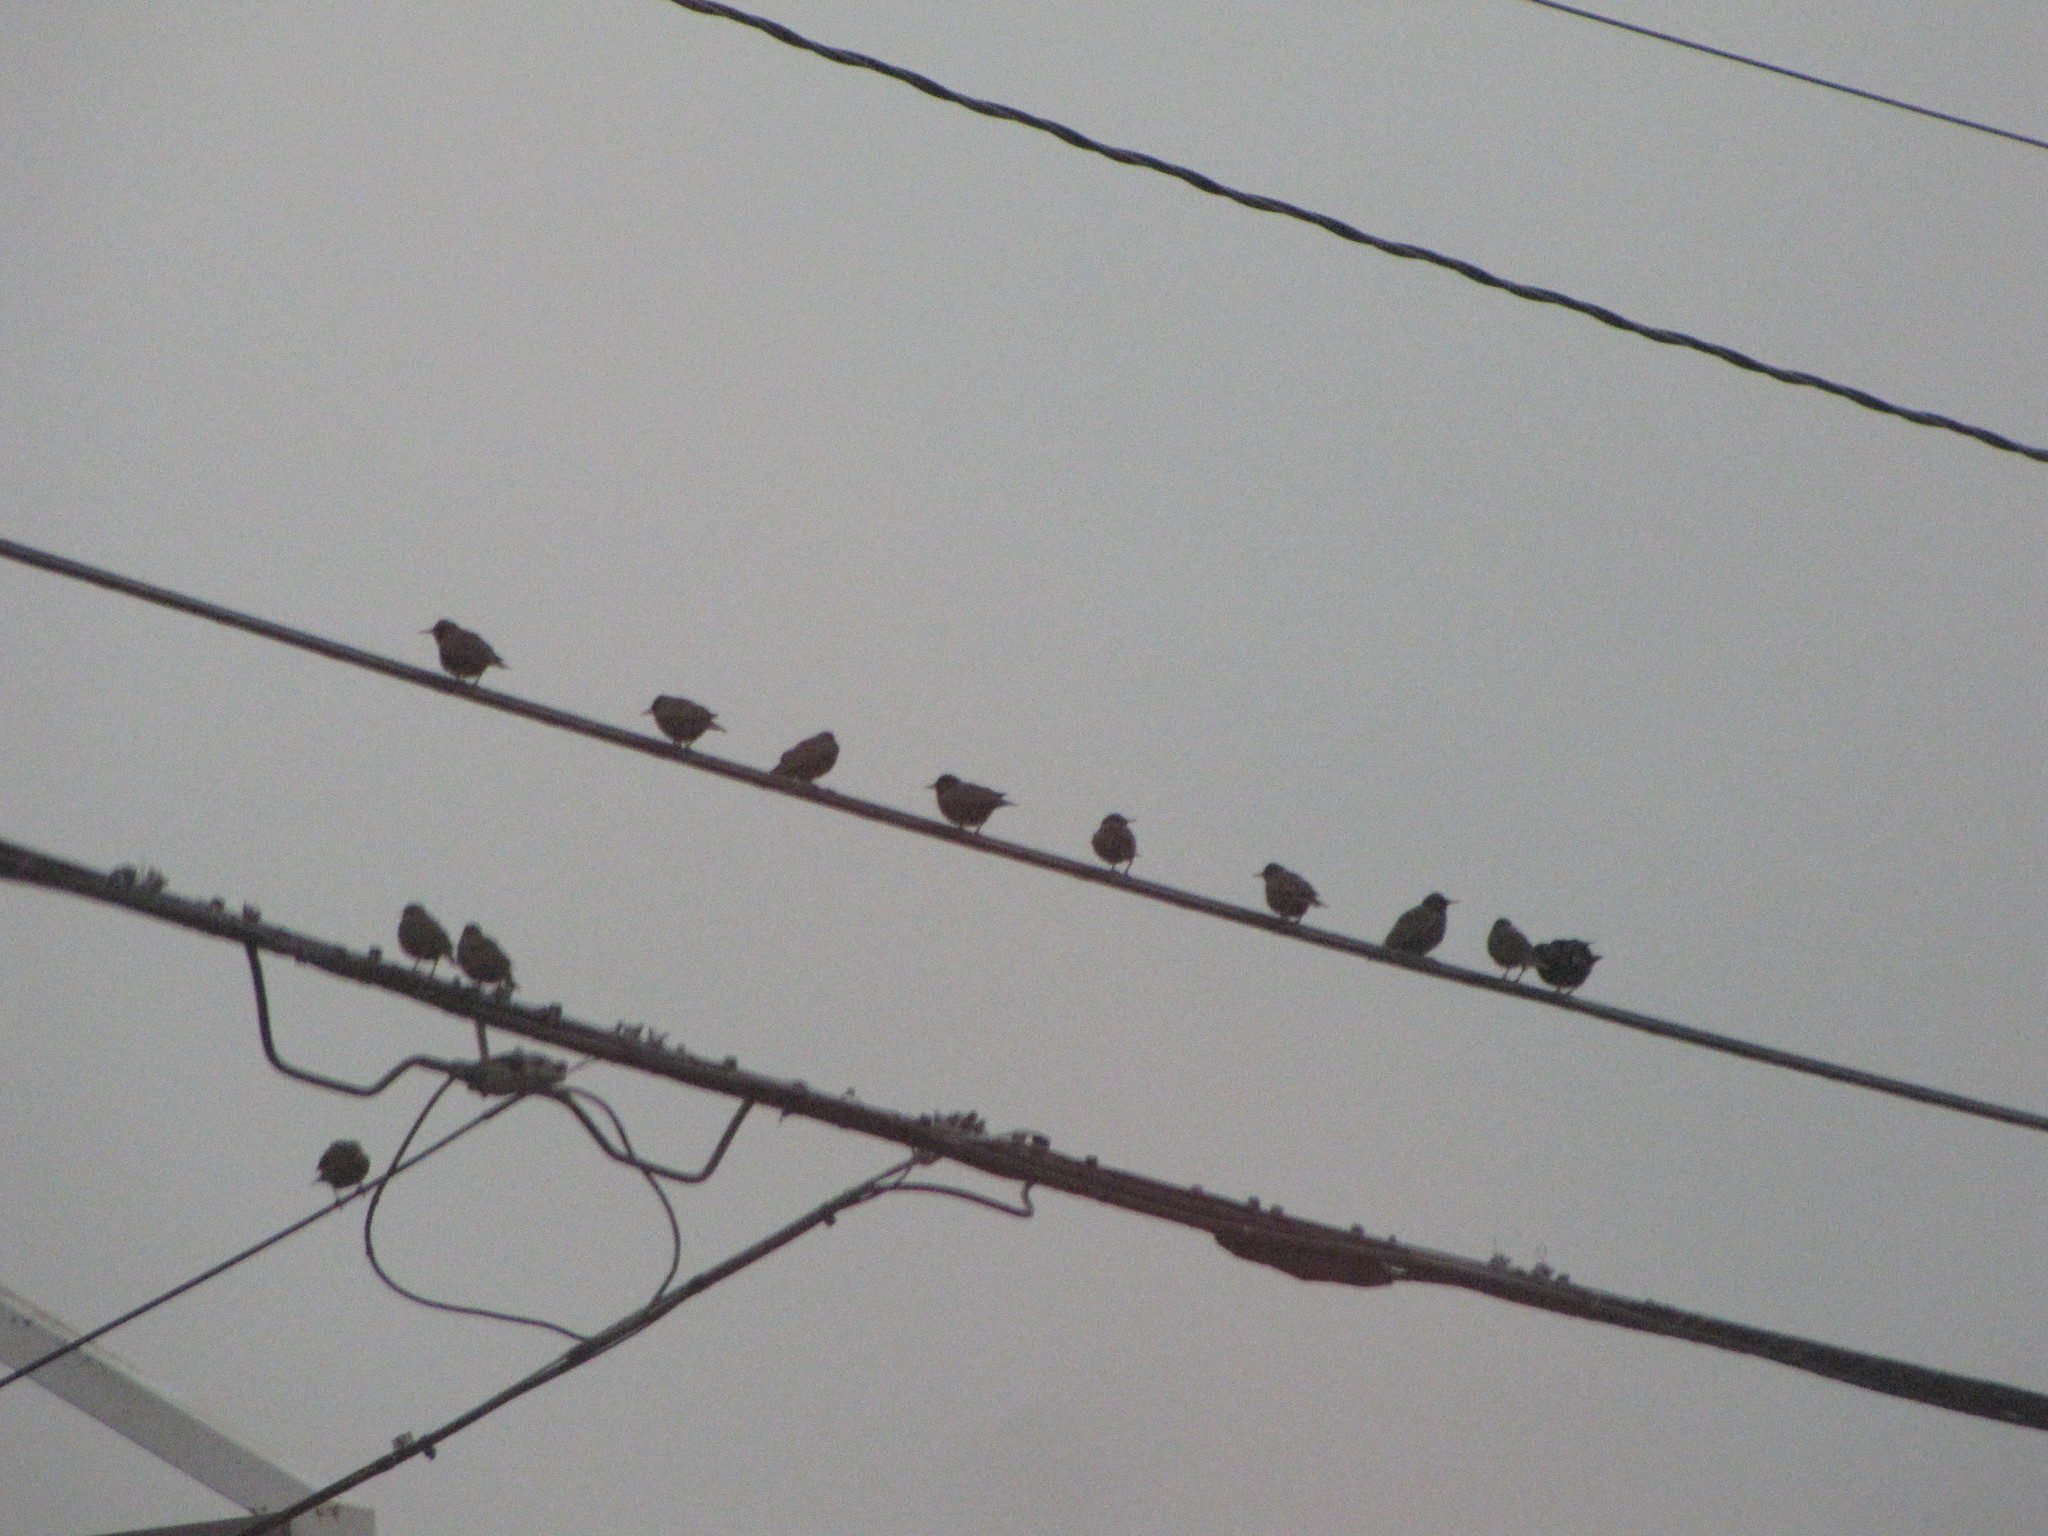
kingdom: Animalia
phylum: Chordata
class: Aves
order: Passeriformes
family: Sturnidae
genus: Sturnus
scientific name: Sturnus vulgaris
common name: Common starling
